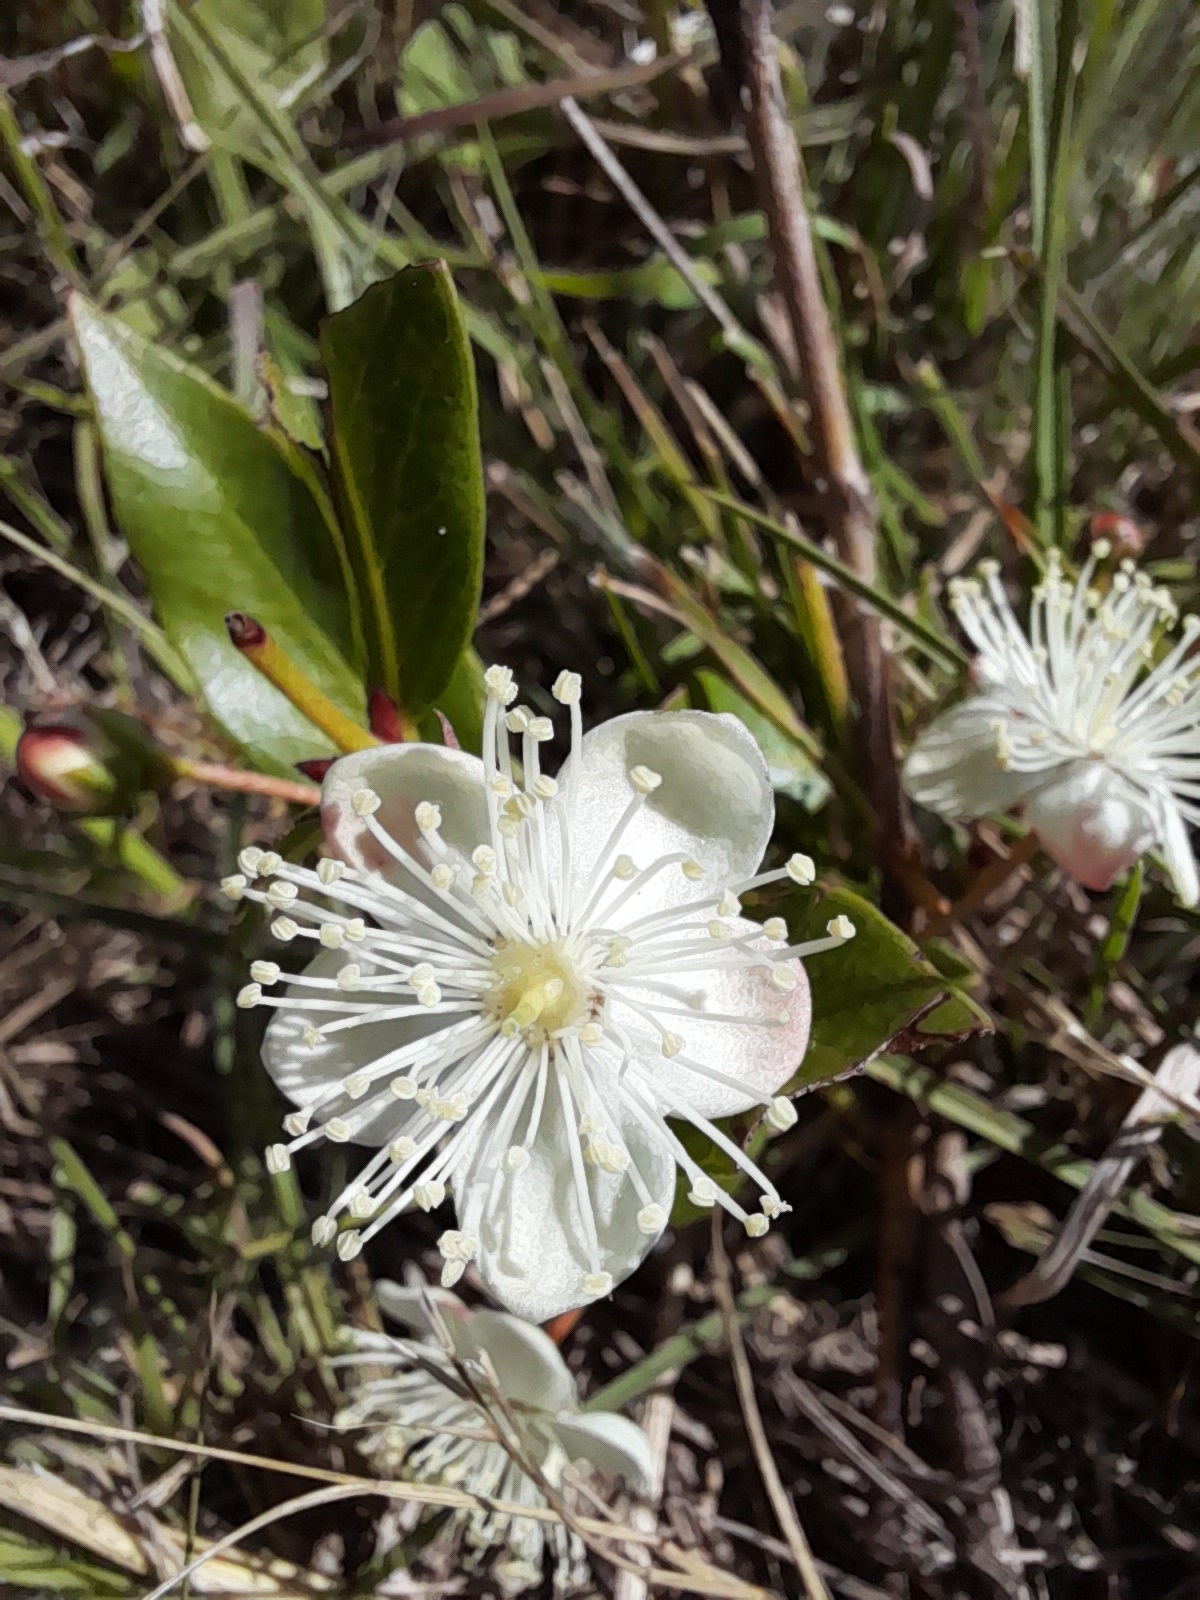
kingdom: Plantae
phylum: Tracheophyta
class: Magnoliopsida
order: Myrtales
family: Myrtaceae
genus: Psidium
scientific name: Psidium salutare
